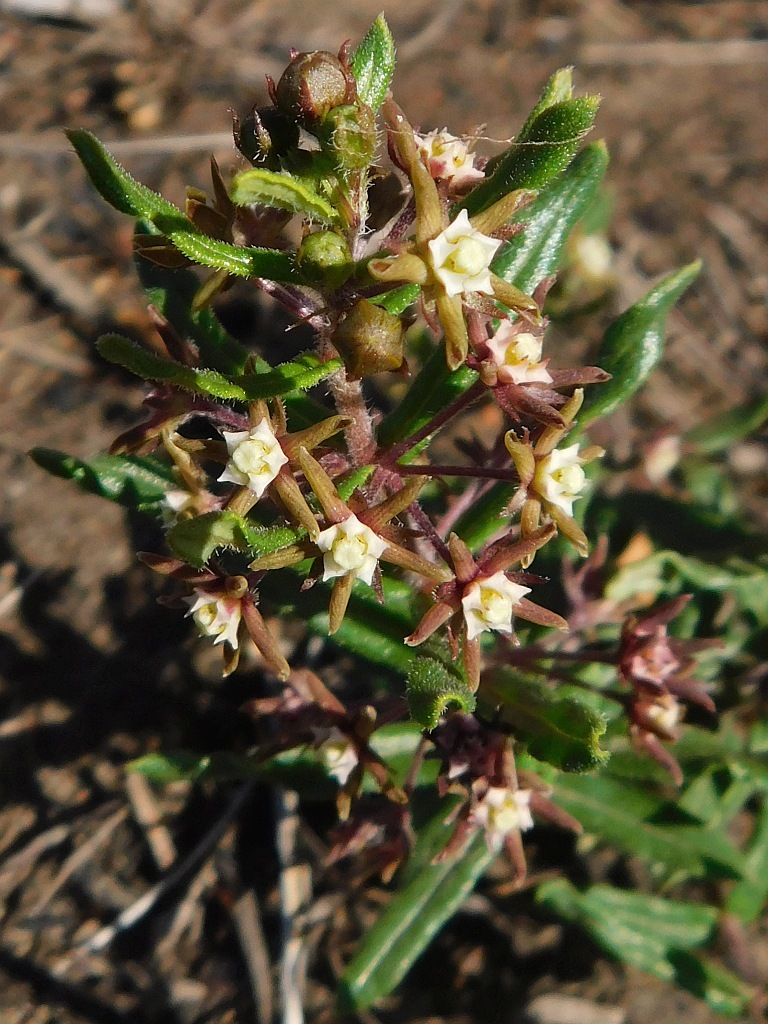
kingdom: Plantae
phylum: Tracheophyta
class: Magnoliopsida
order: Gentianales
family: Apocynaceae
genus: Aspidoglossum
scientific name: Aspidoglossum heterophyllum
